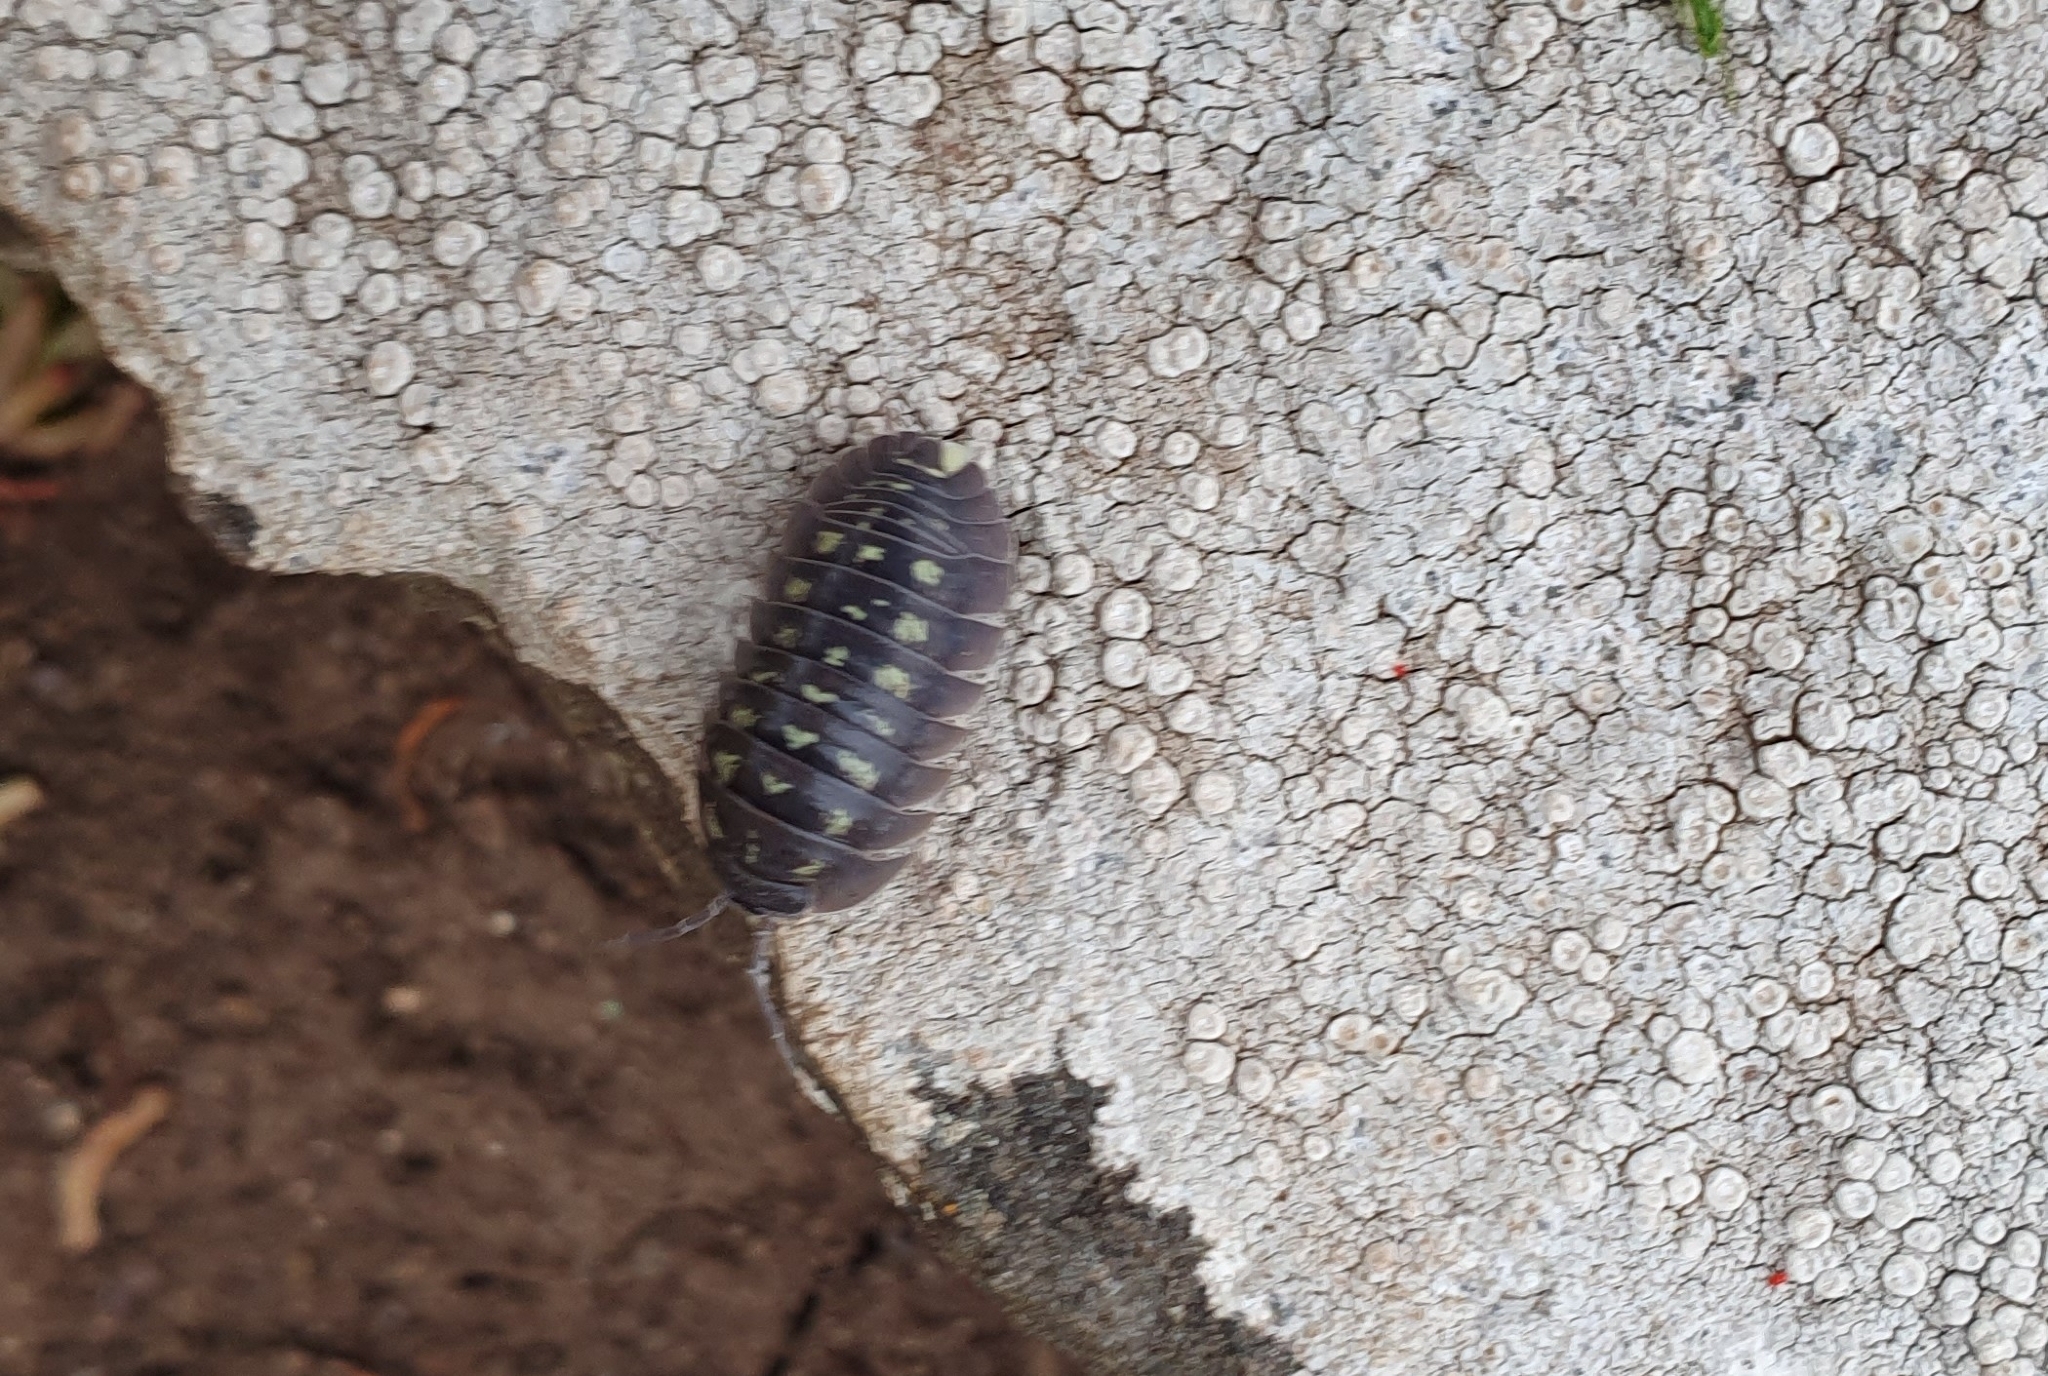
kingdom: Animalia
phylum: Arthropoda
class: Malacostraca
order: Isopoda
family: Armadillidiidae
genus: Armadillidium
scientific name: Armadillidium depressum
